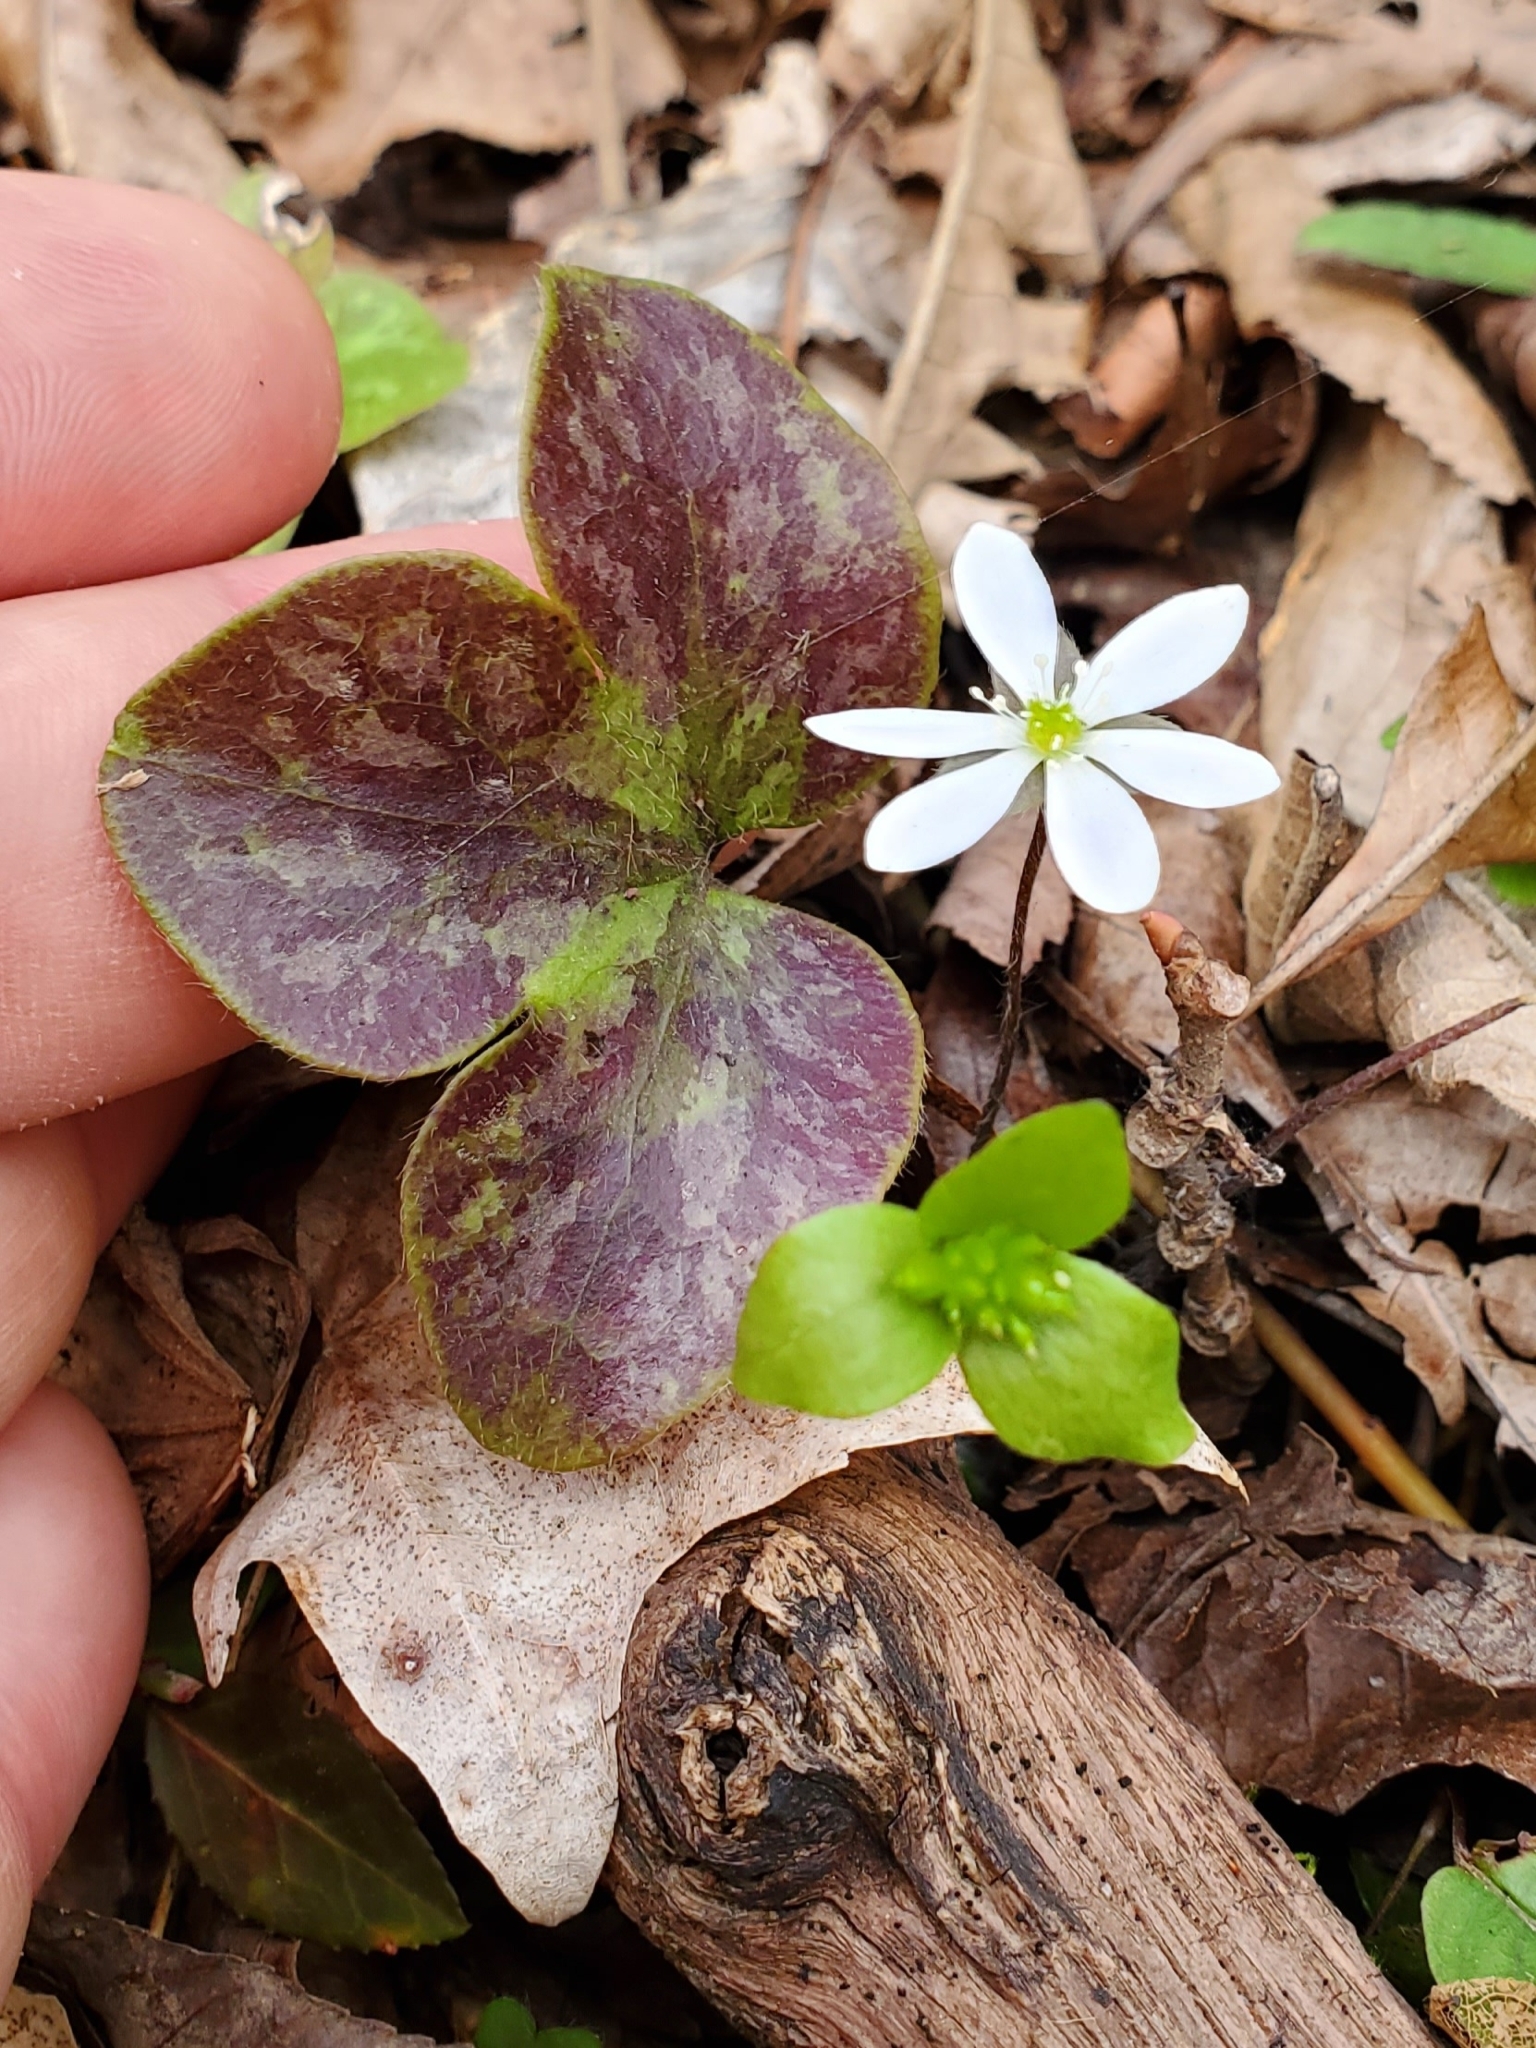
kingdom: Plantae
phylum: Tracheophyta
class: Magnoliopsida
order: Ranunculales
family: Ranunculaceae
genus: Hepatica
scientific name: Hepatica americana
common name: American hepatica
